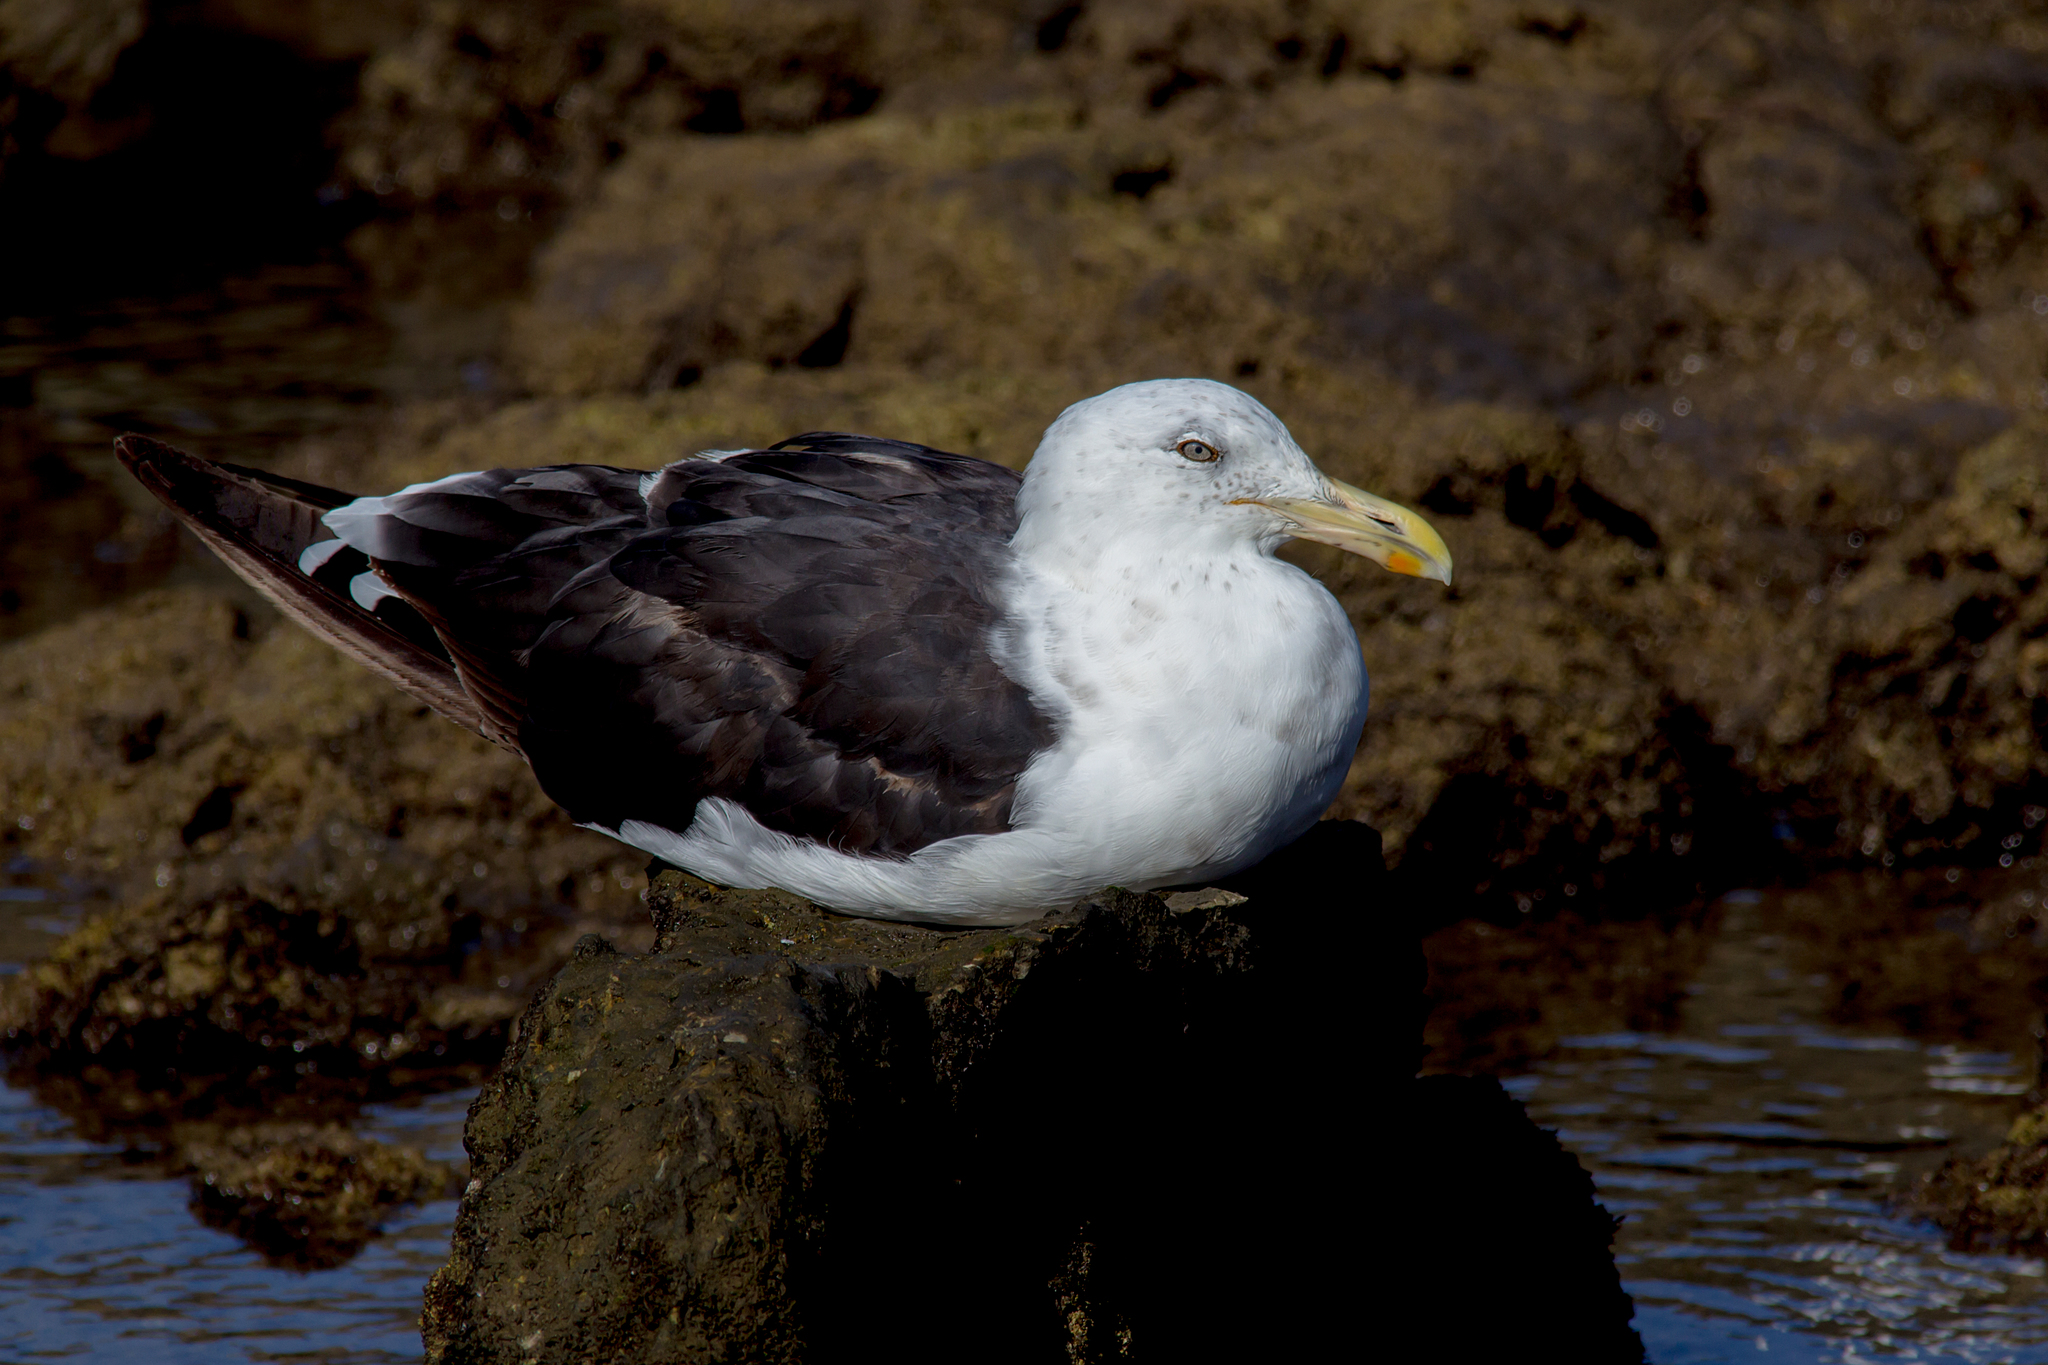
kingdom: Animalia
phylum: Chordata
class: Aves
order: Charadriiformes
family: Laridae
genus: Larus
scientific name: Larus dominicanus
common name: Kelp gull
